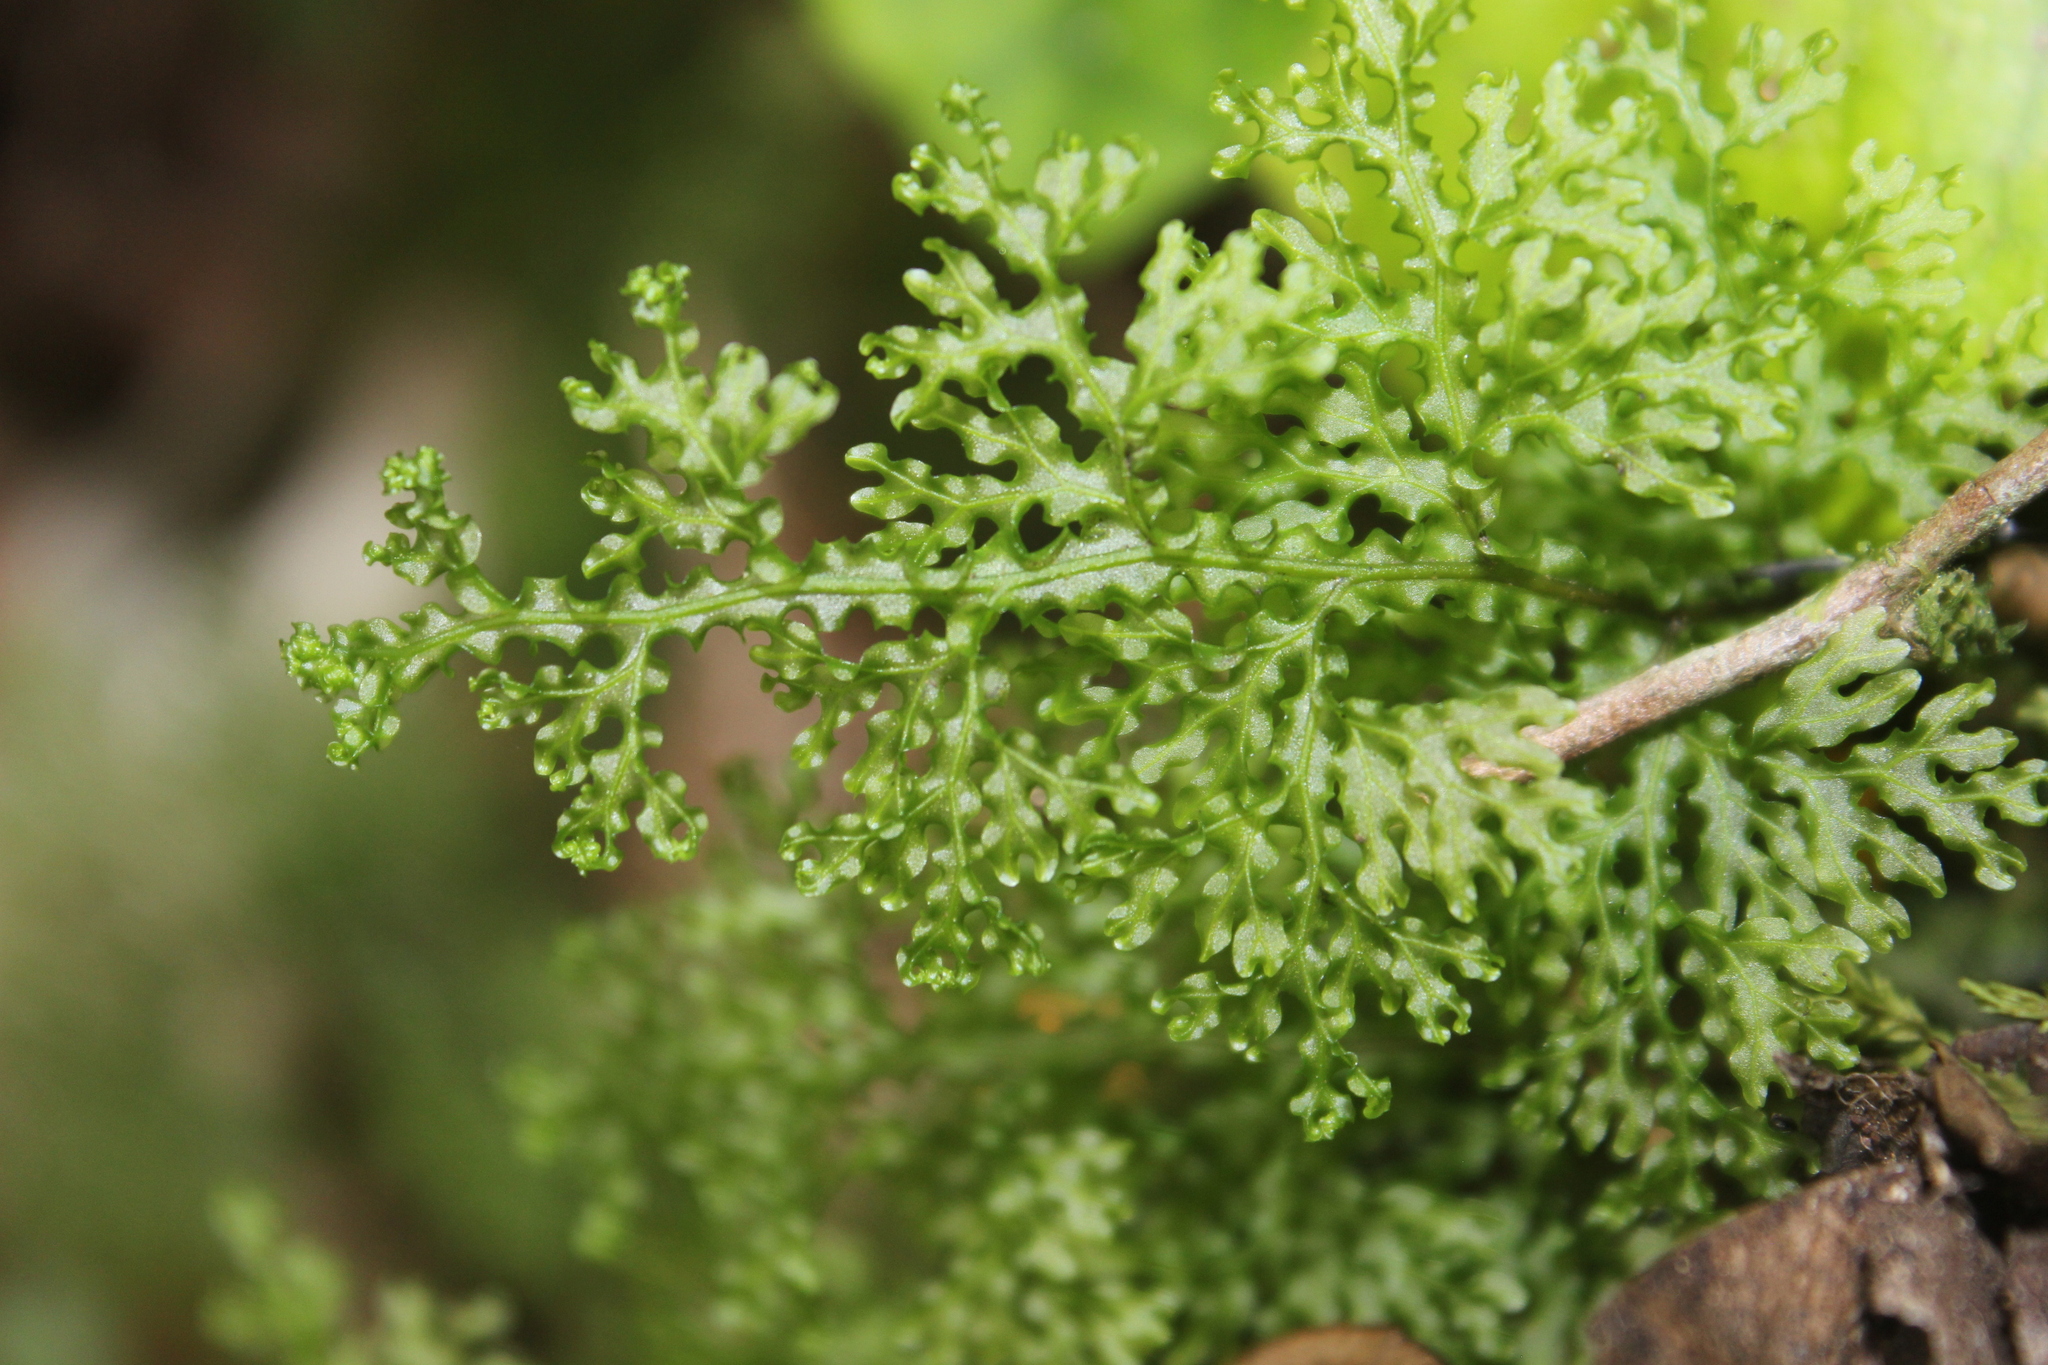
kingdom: Plantae
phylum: Tracheophyta
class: Polypodiopsida
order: Hymenophyllales
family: Hymenophyllaceae
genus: Hymenophyllum
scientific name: Hymenophyllum flexuosum
